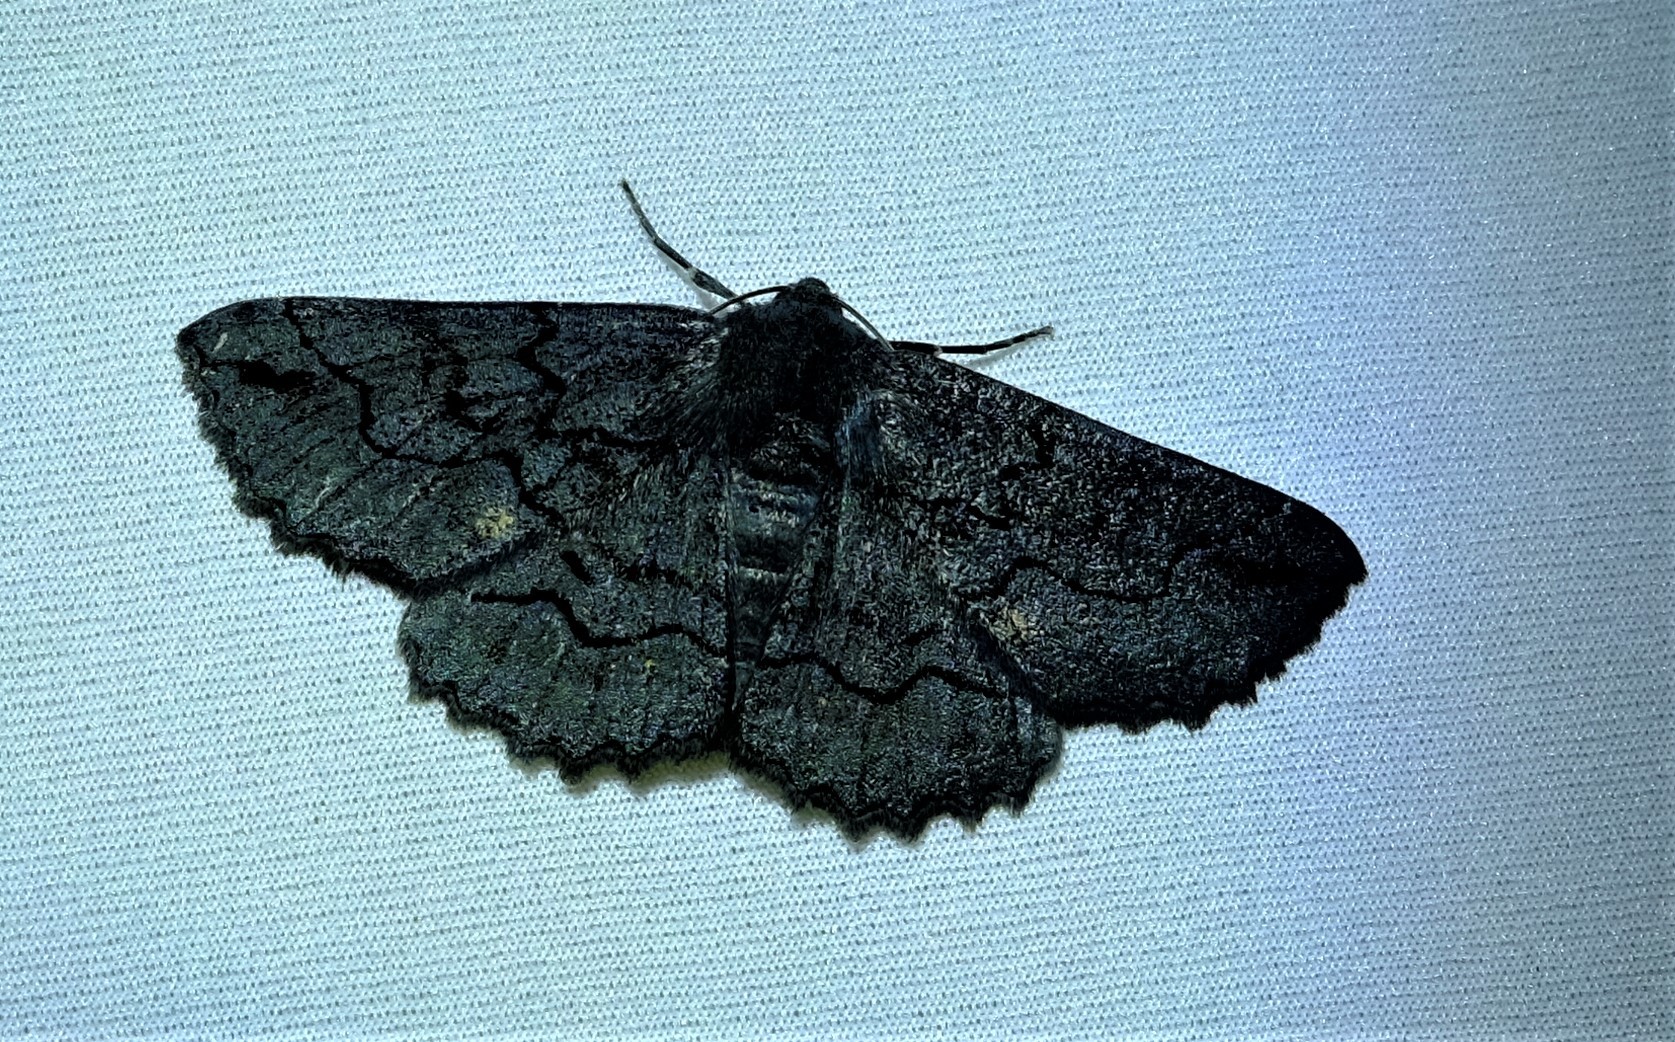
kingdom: Animalia
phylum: Arthropoda
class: Insecta
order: Lepidoptera
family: Geometridae
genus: Melanodes
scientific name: Melanodes anthracitaria
